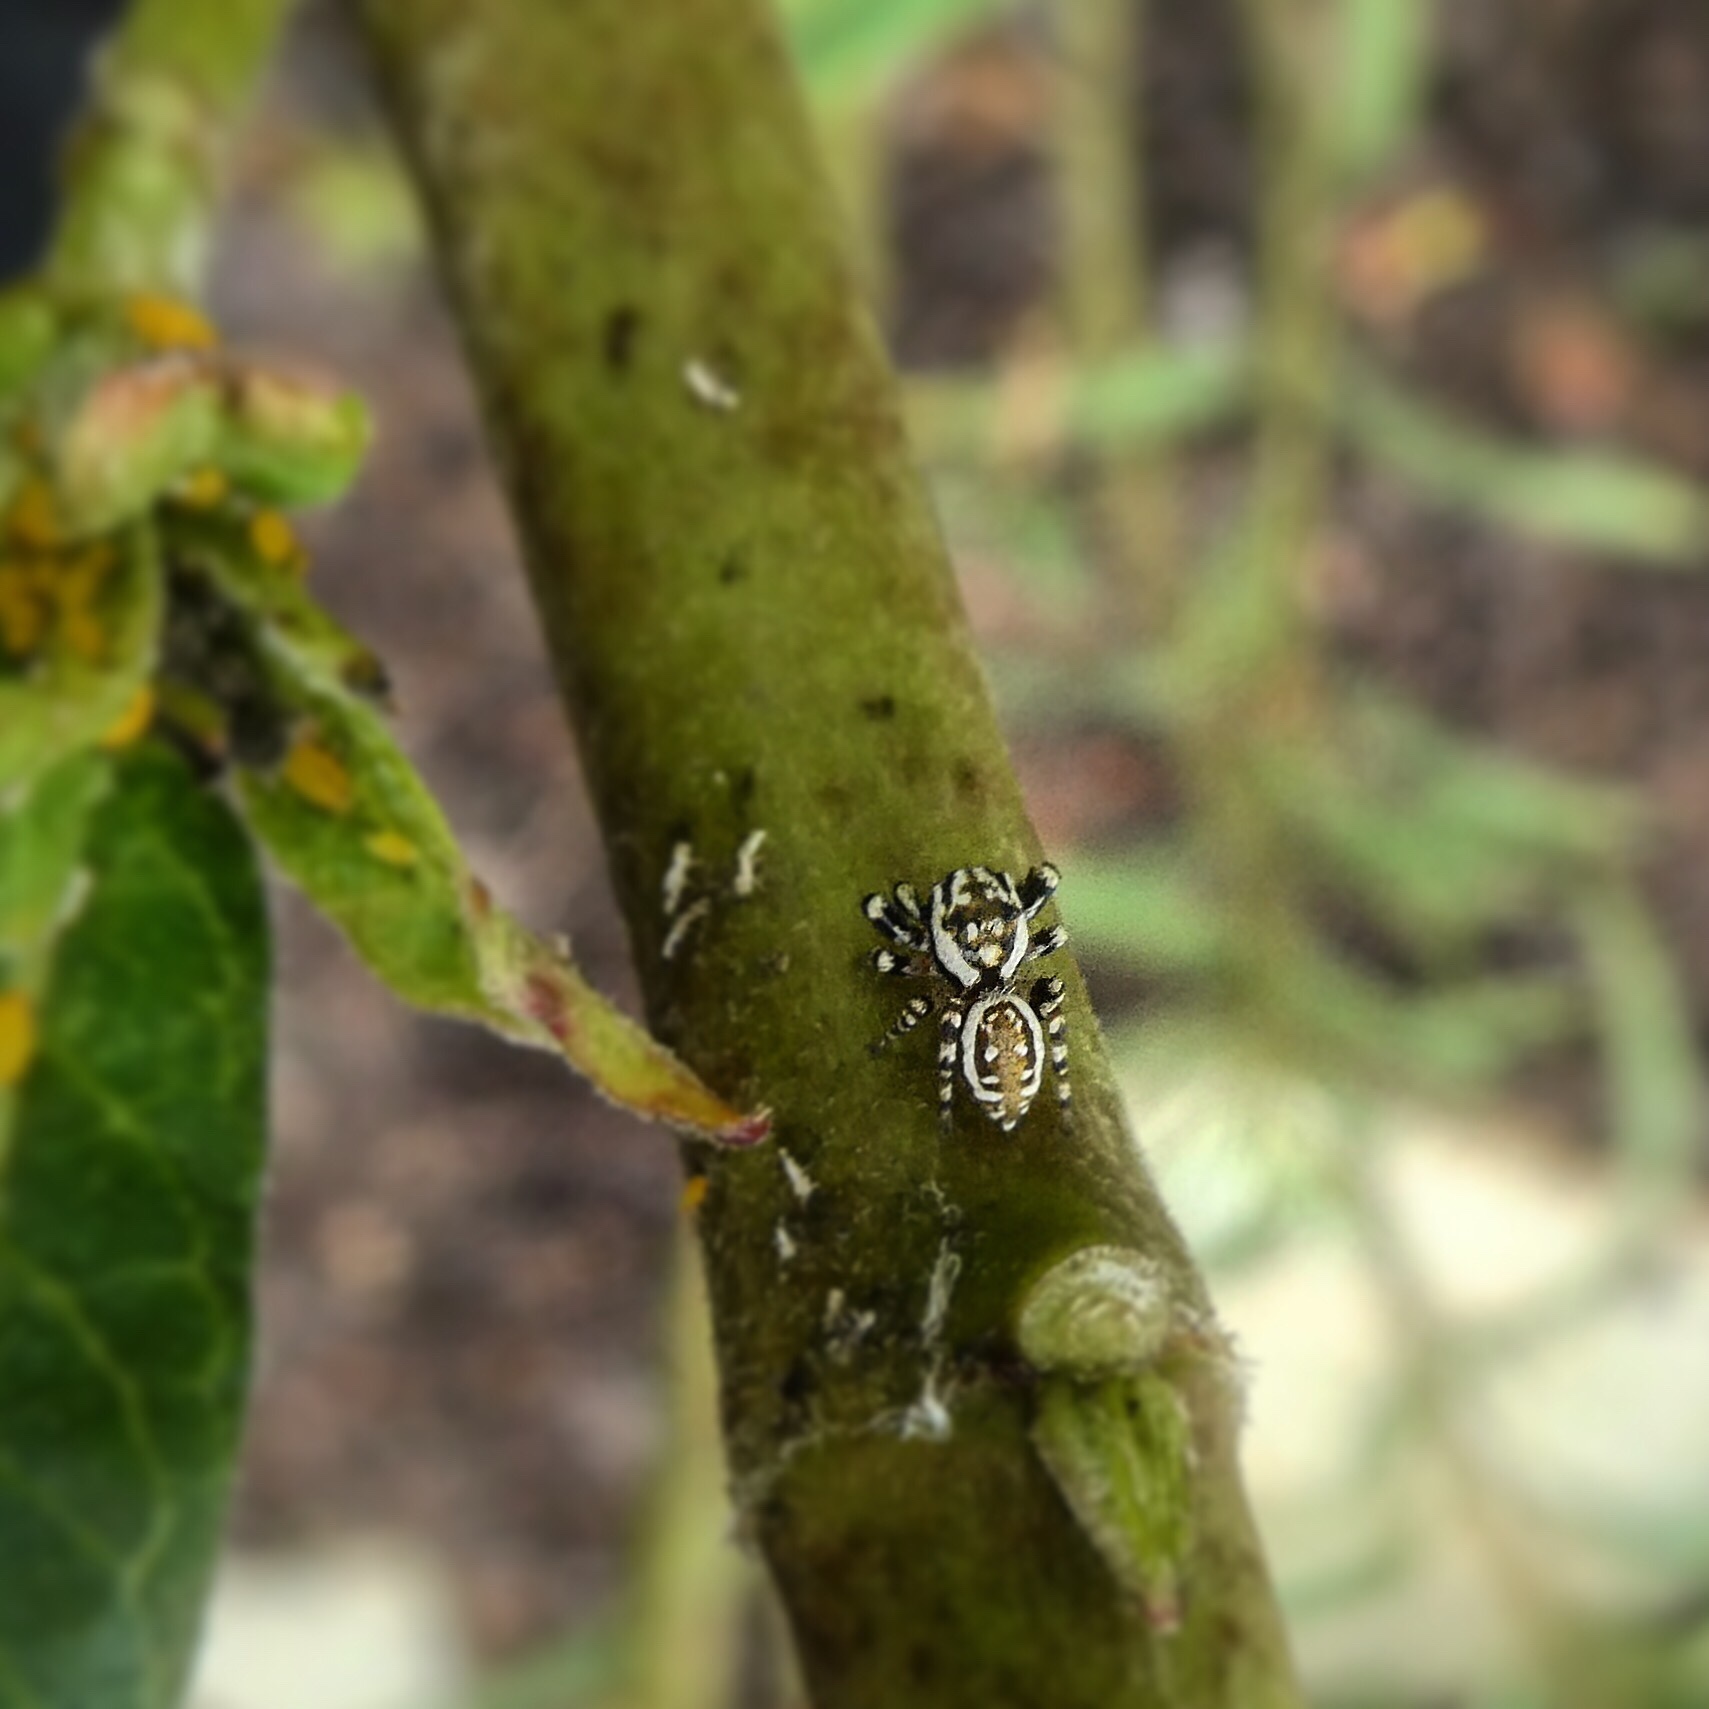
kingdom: Animalia
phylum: Arthropoda
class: Arachnida
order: Araneae
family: Salticidae
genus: Pelegrina
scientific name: Pelegrina galathea
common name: Jumping spiders
